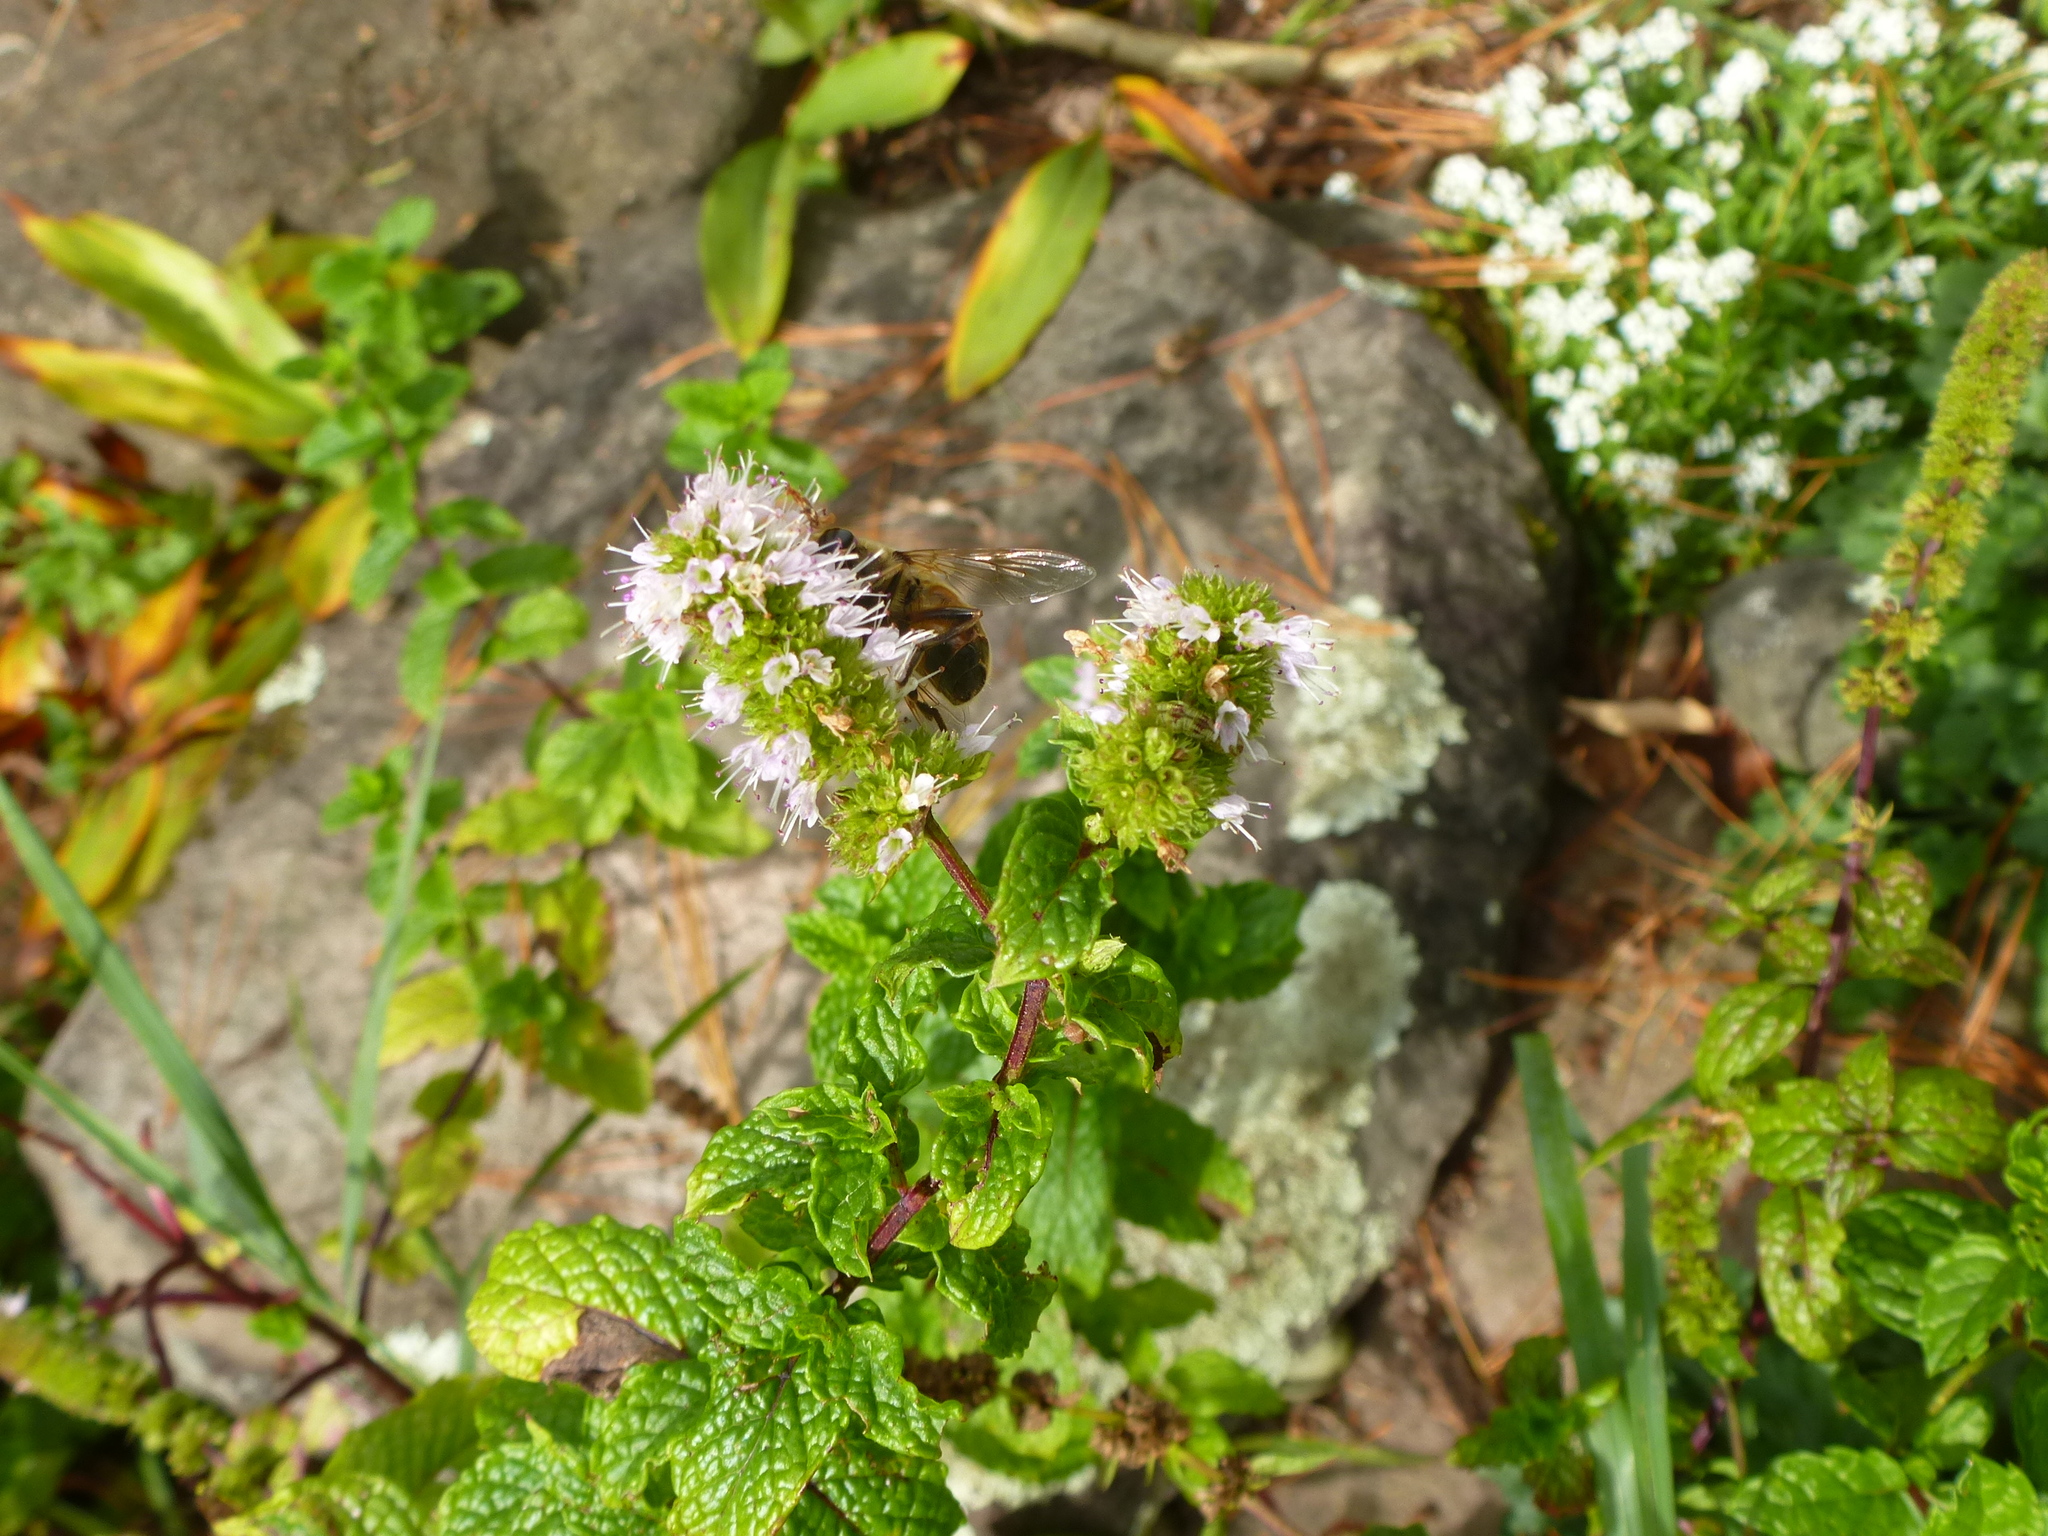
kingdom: Animalia
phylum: Arthropoda
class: Insecta
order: Hymenoptera
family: Apidae
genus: Apis
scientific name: Apis mellifera
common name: Honey bee
